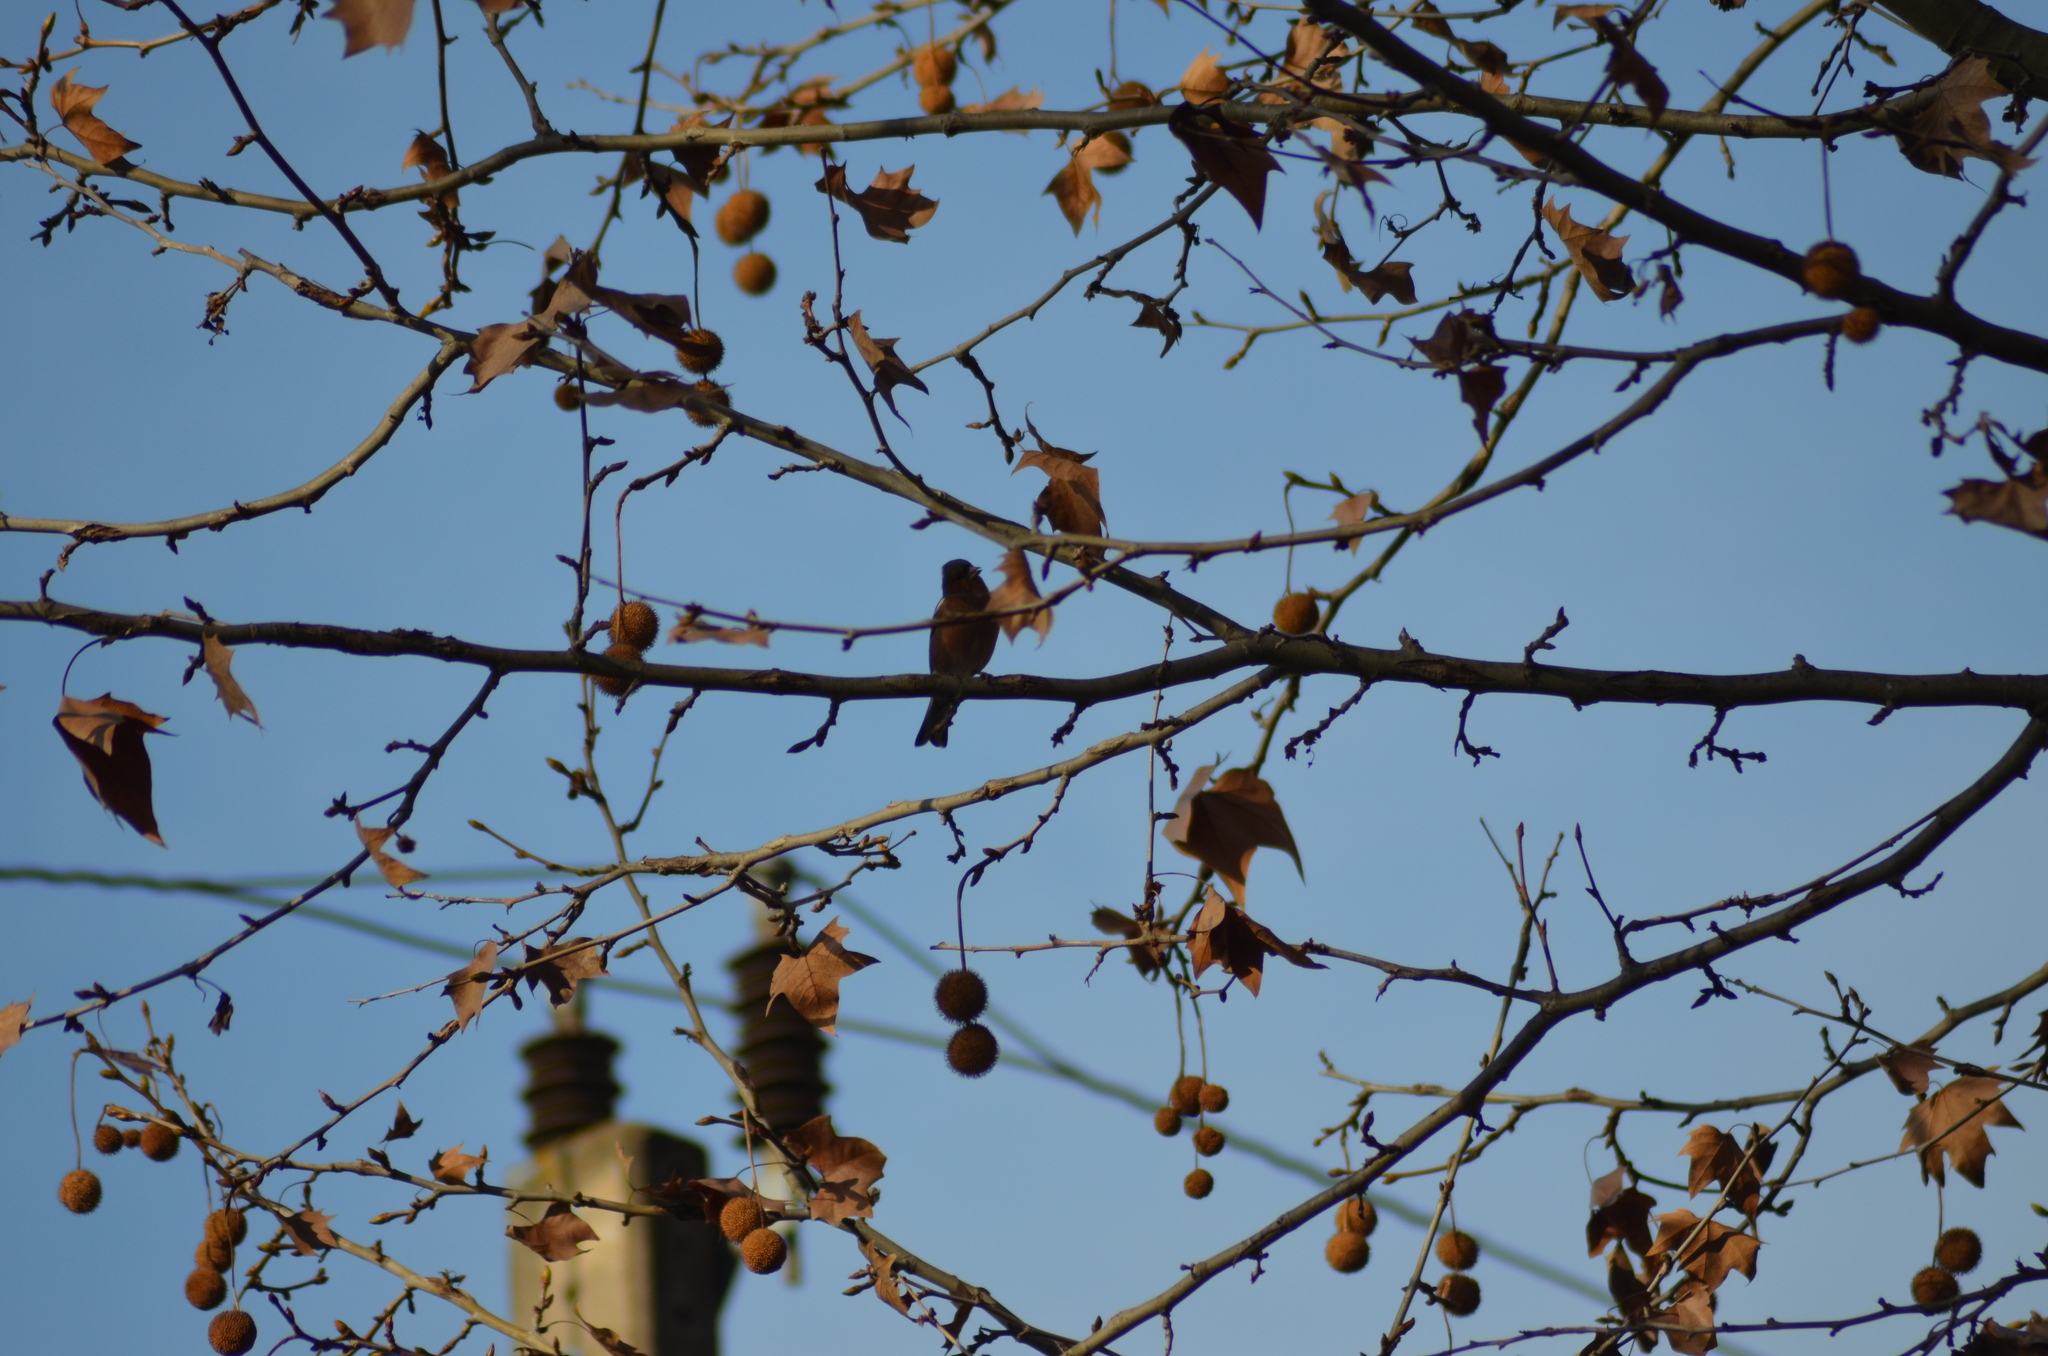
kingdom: Animalia
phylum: Chordata
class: Aves
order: Passeriformes
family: Fringillidae
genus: Fringilla
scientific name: Fringilla coelebs
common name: Common chaffinch
